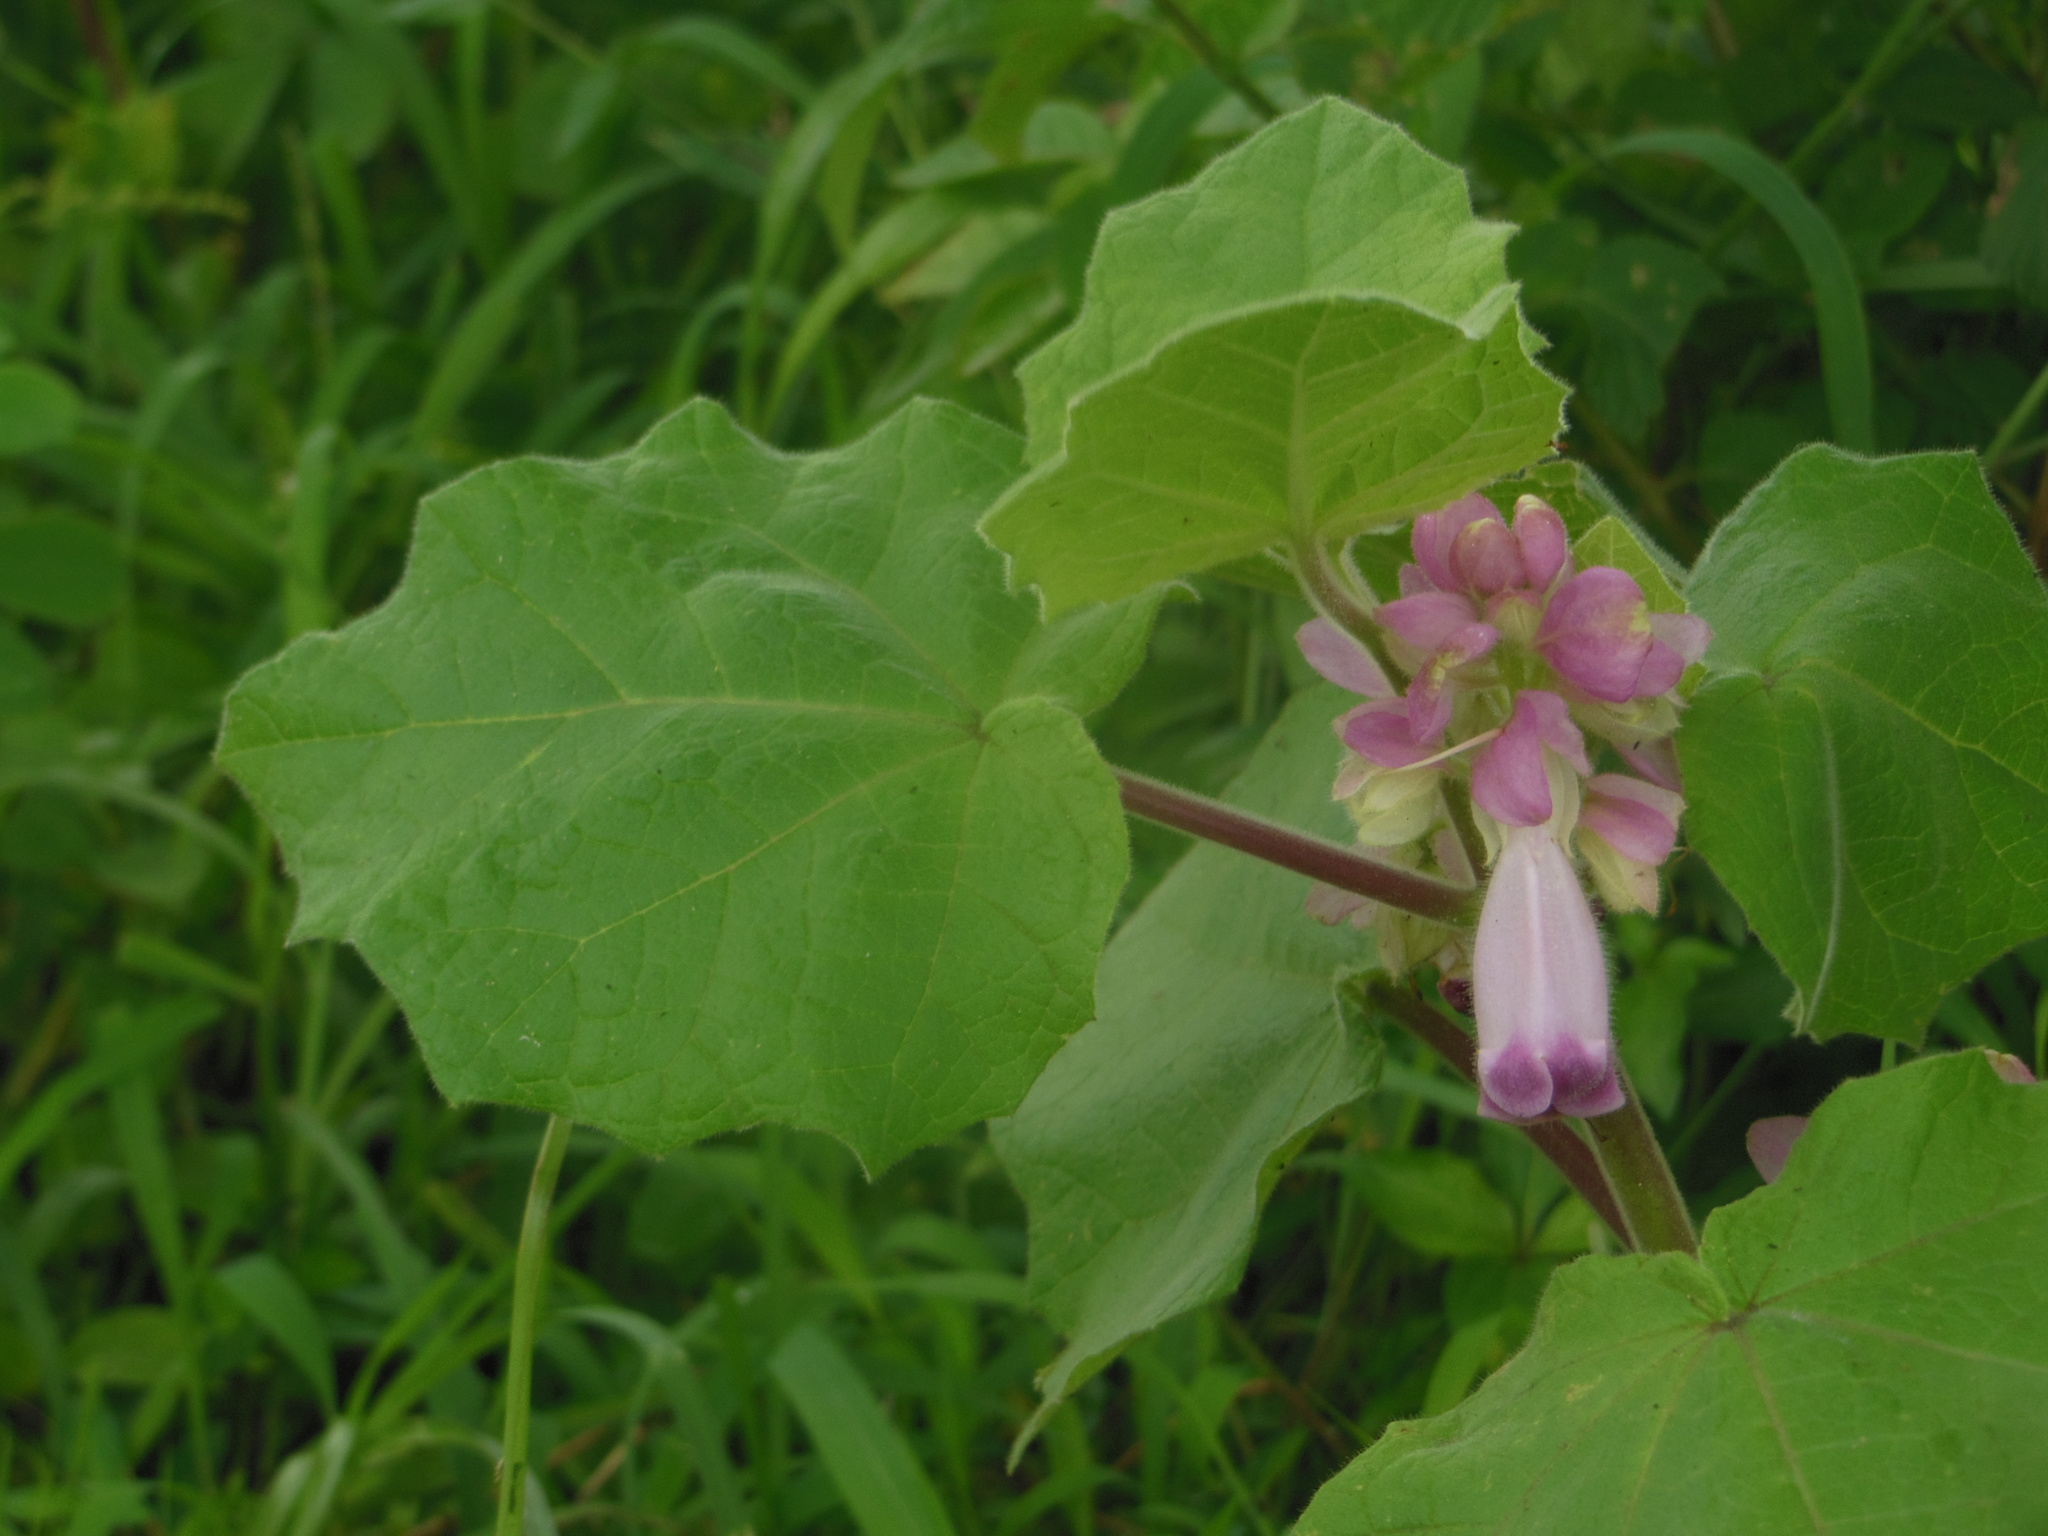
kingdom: Plantae
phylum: Tracheophyta
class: Magnoliopsida
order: Lamiales
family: Martyniaceae
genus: Martynia
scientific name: Martynia annua
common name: Tiger's-claw
